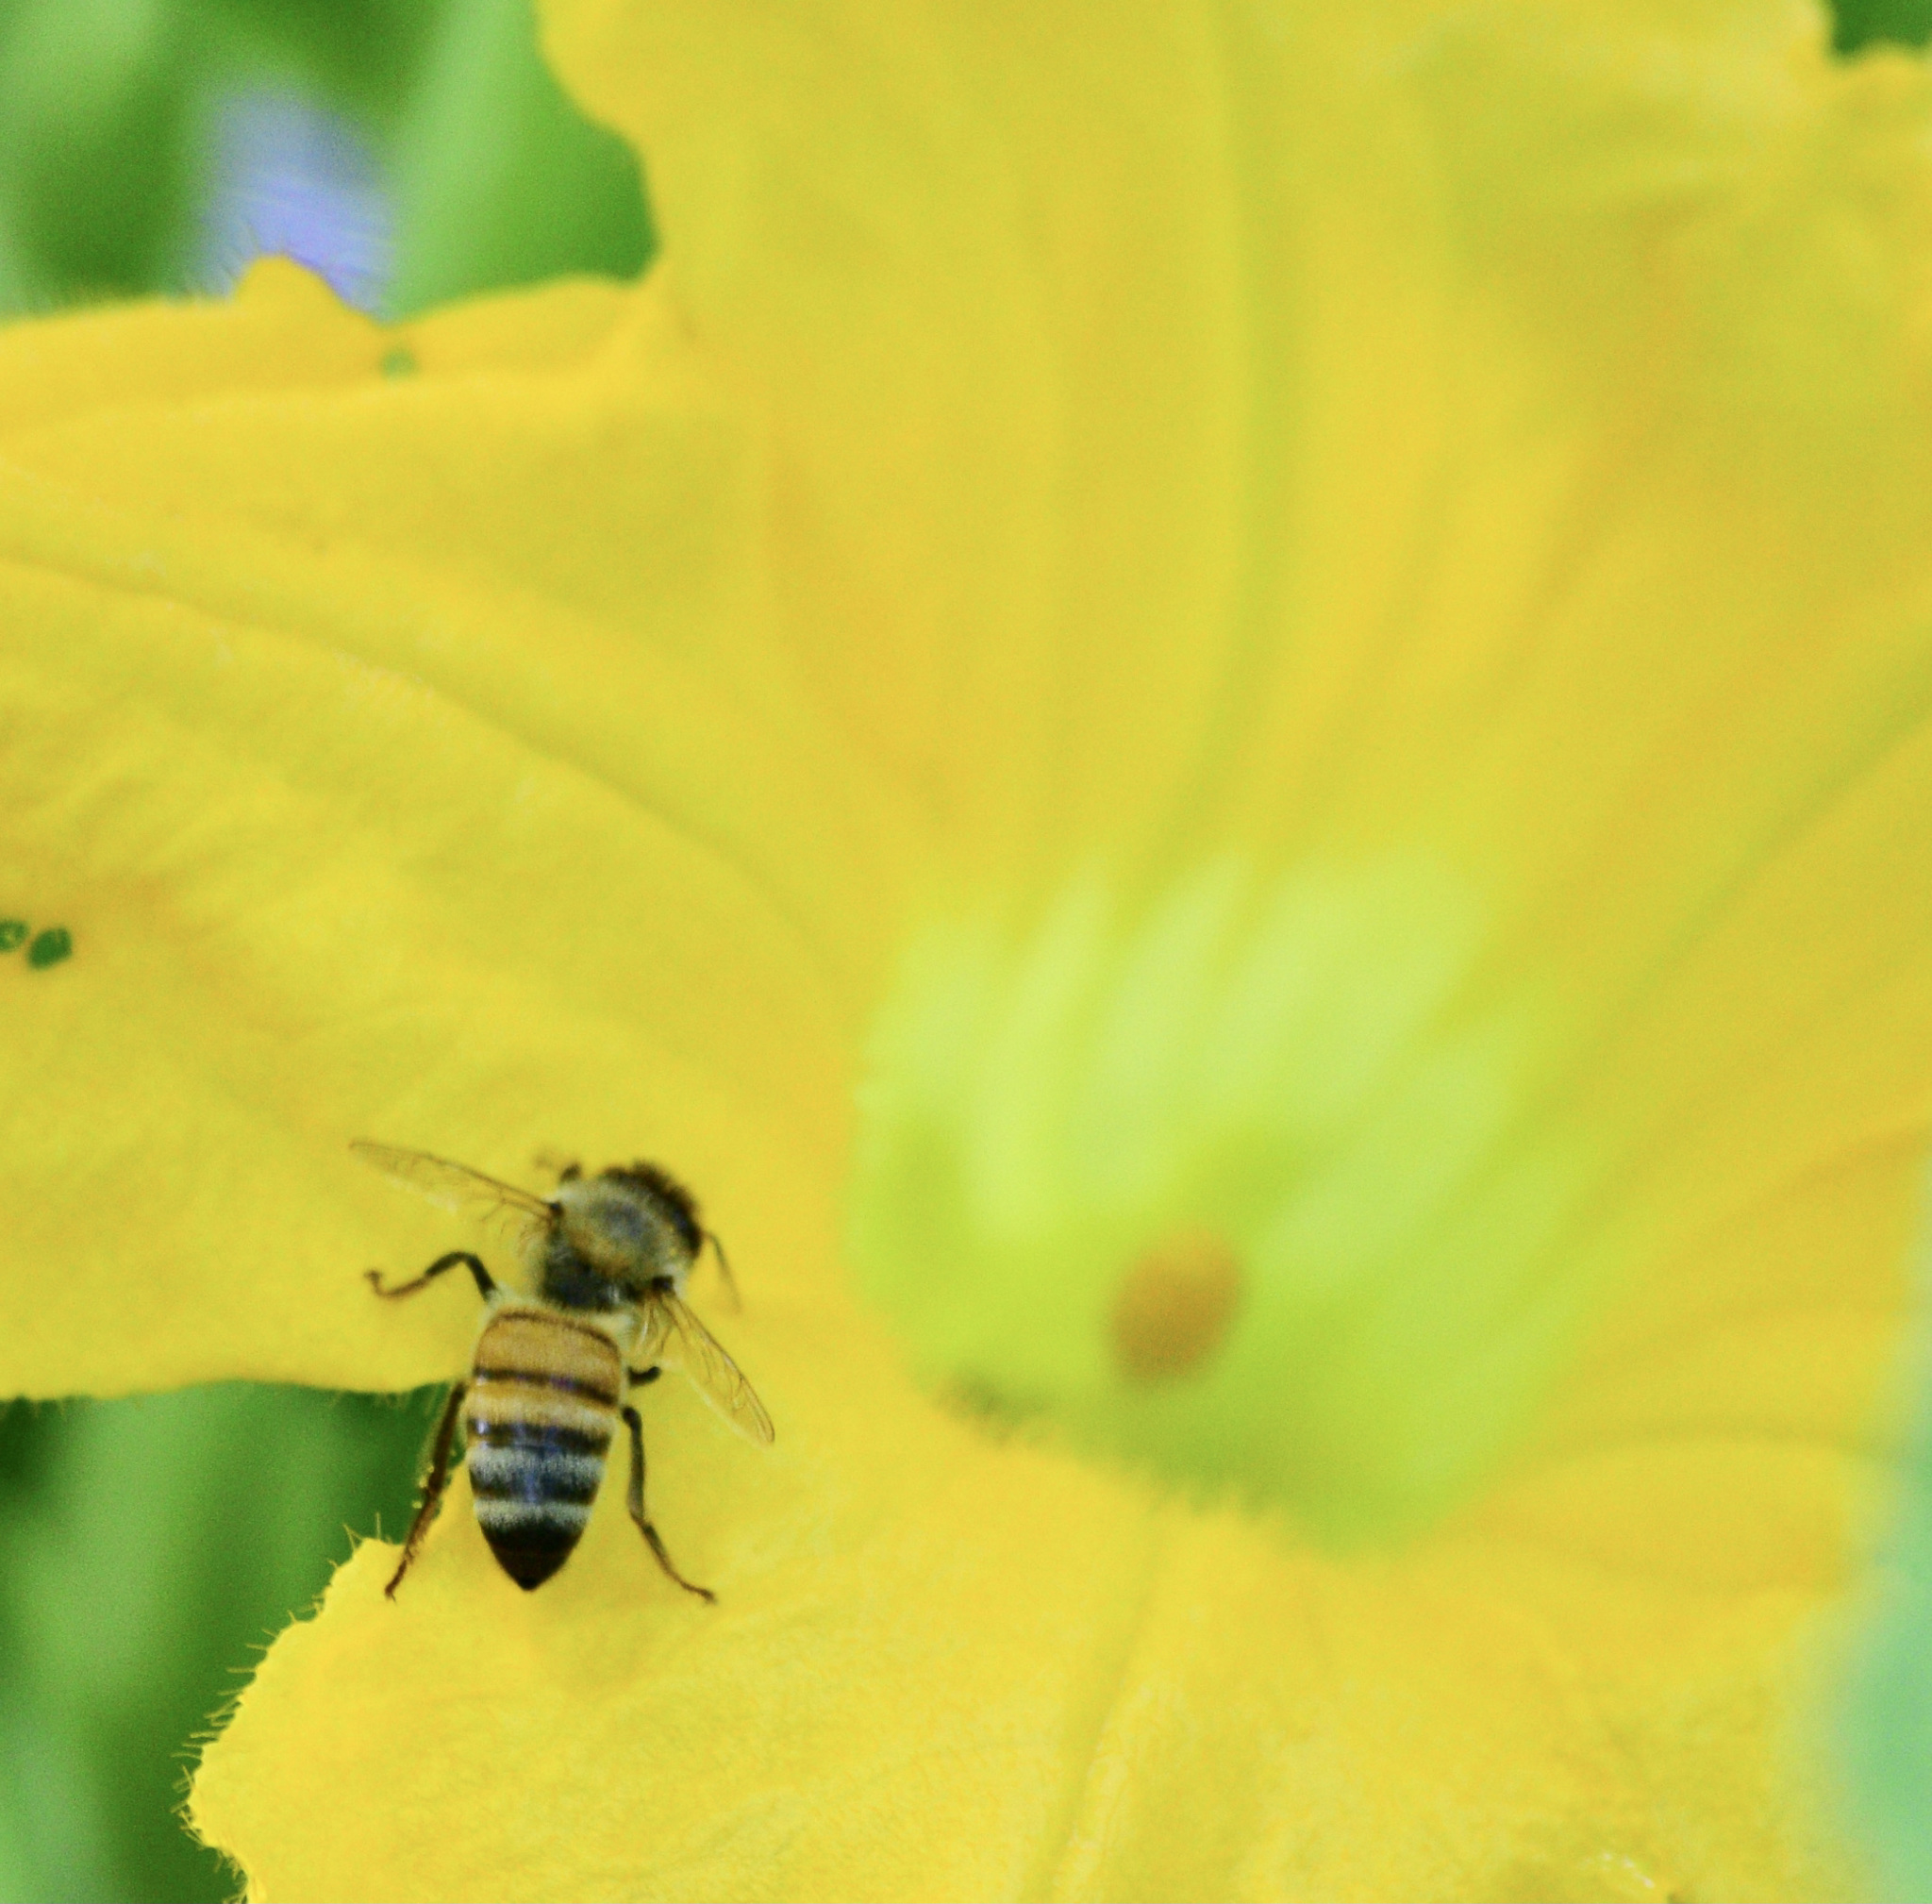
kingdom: Animalia
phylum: Arthropoda
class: Insecta
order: Hymenoptera
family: Apidae
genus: Apis
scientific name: Apis mellifera
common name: Honey bee
